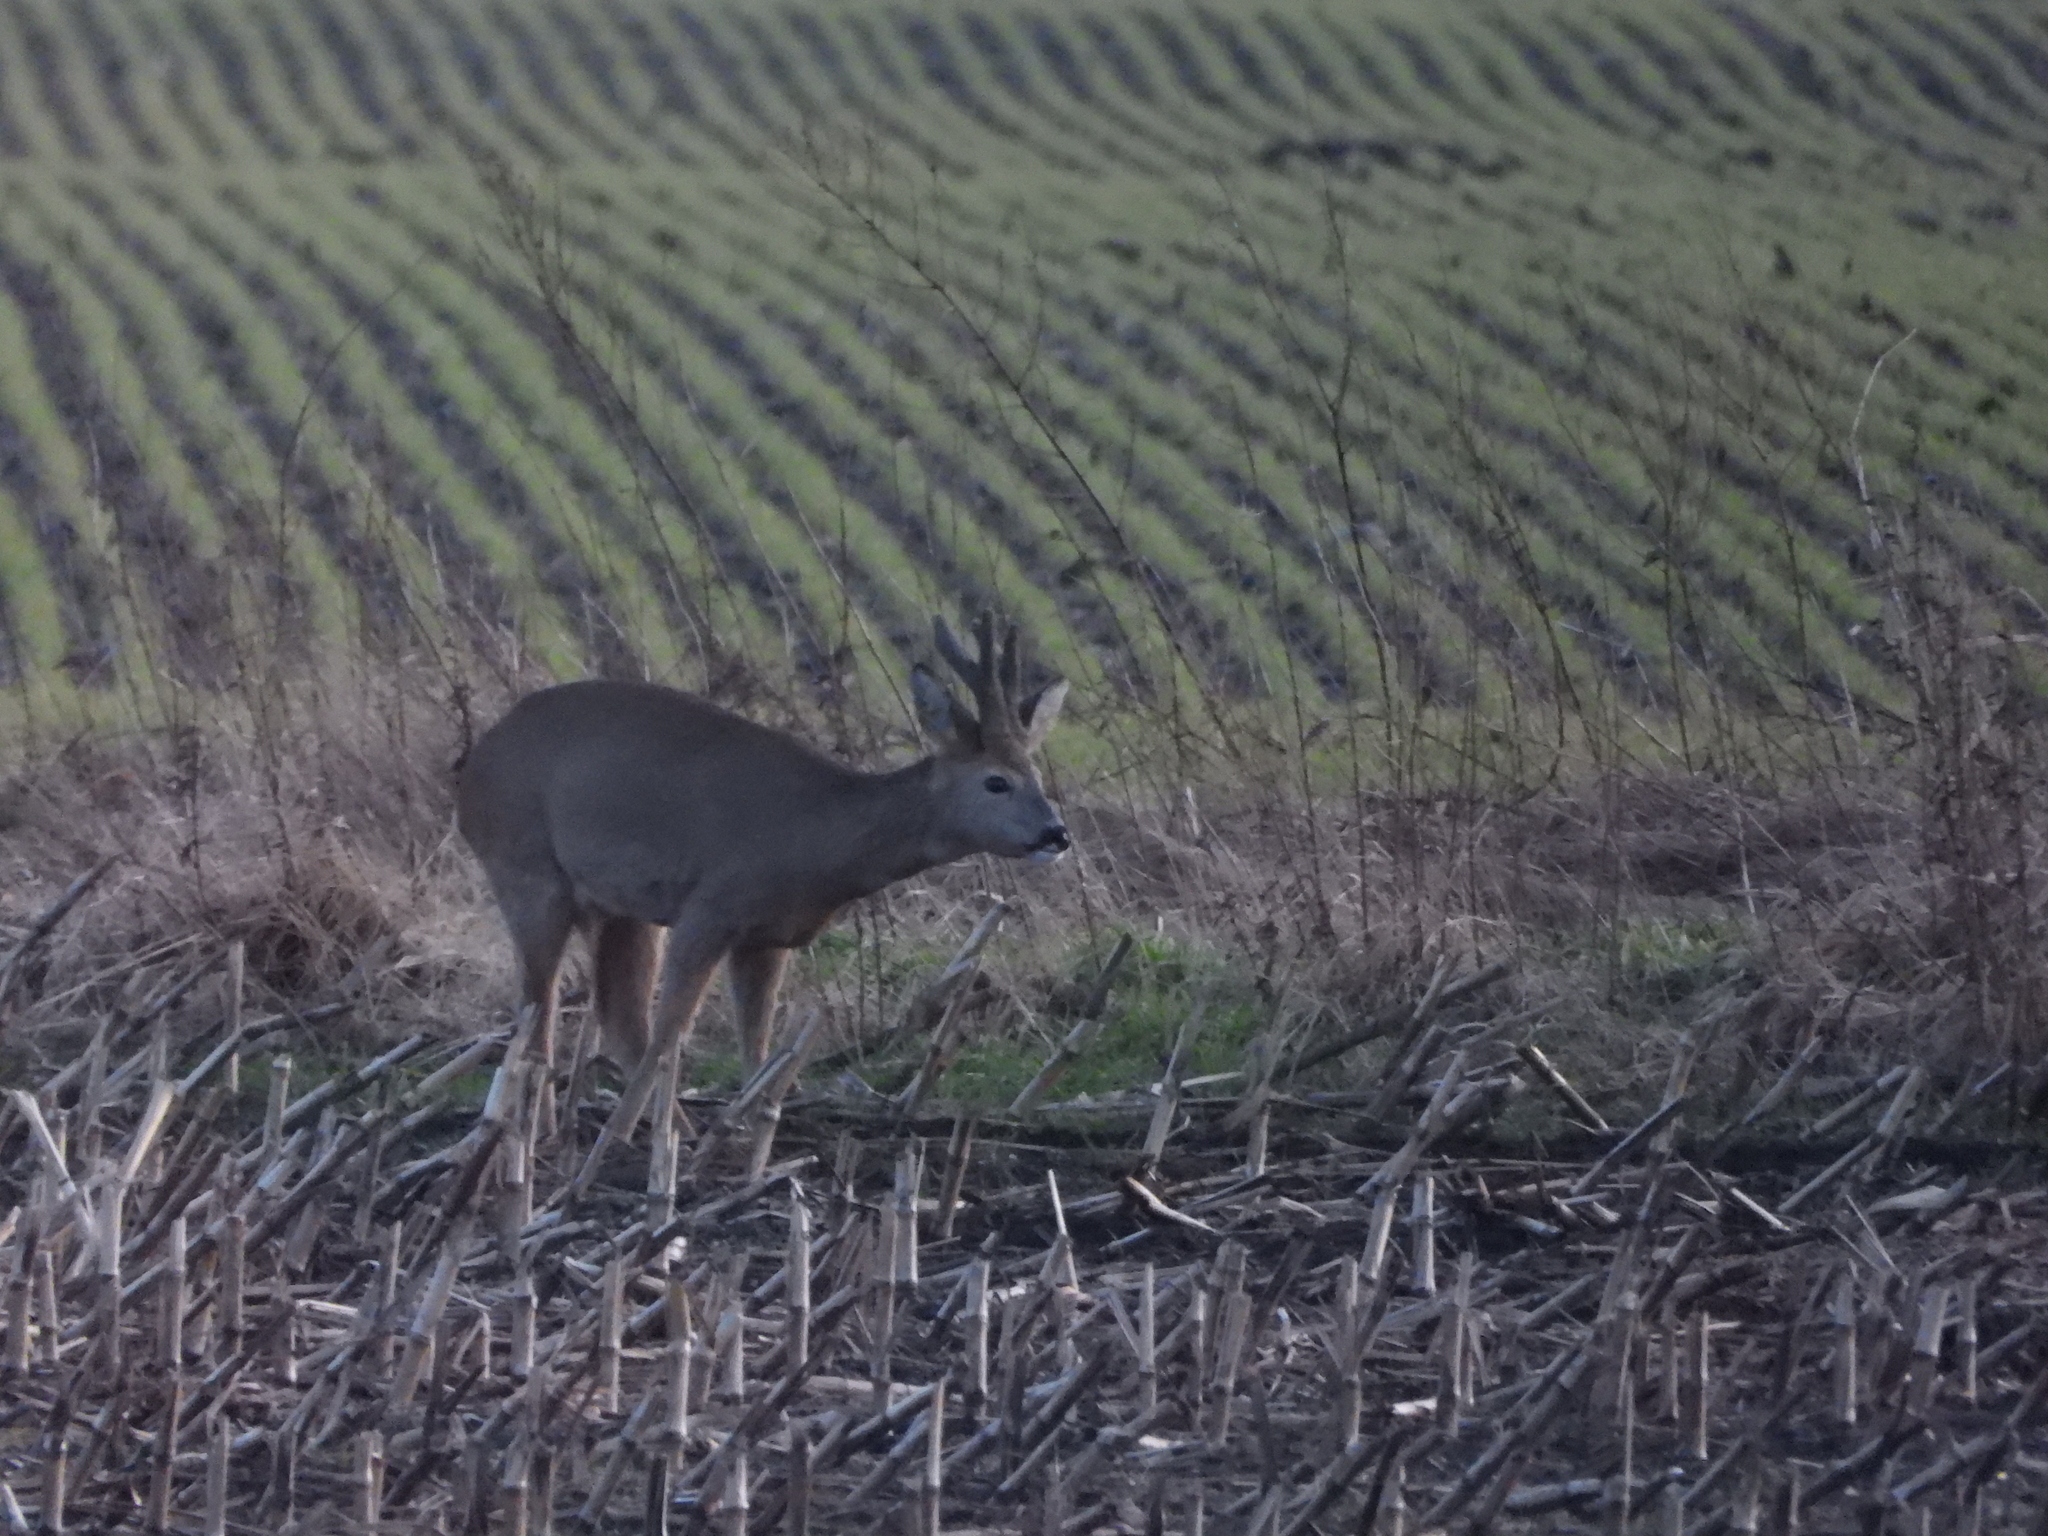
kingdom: Animalia
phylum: Chordata
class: Mammalia
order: Artiodactyla
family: Cervidae
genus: Capreolus
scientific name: Capreolus capreolus
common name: Western roe deer
